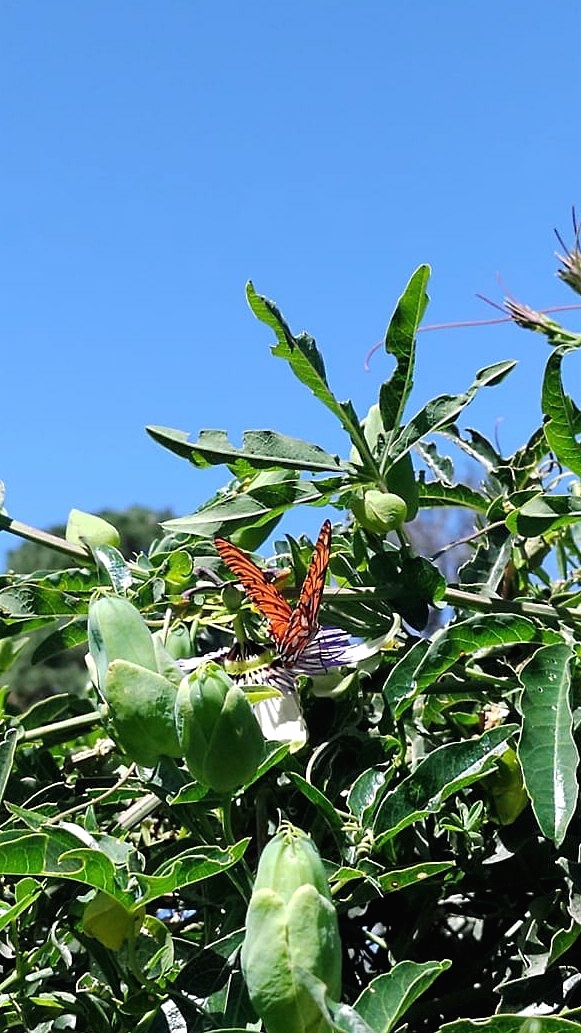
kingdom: Animalia
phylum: Arthropoda
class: Insecta
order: Lepidoptera
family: Nymphalidae
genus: Dione
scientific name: Dione vanillae
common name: Gulf fritillary
